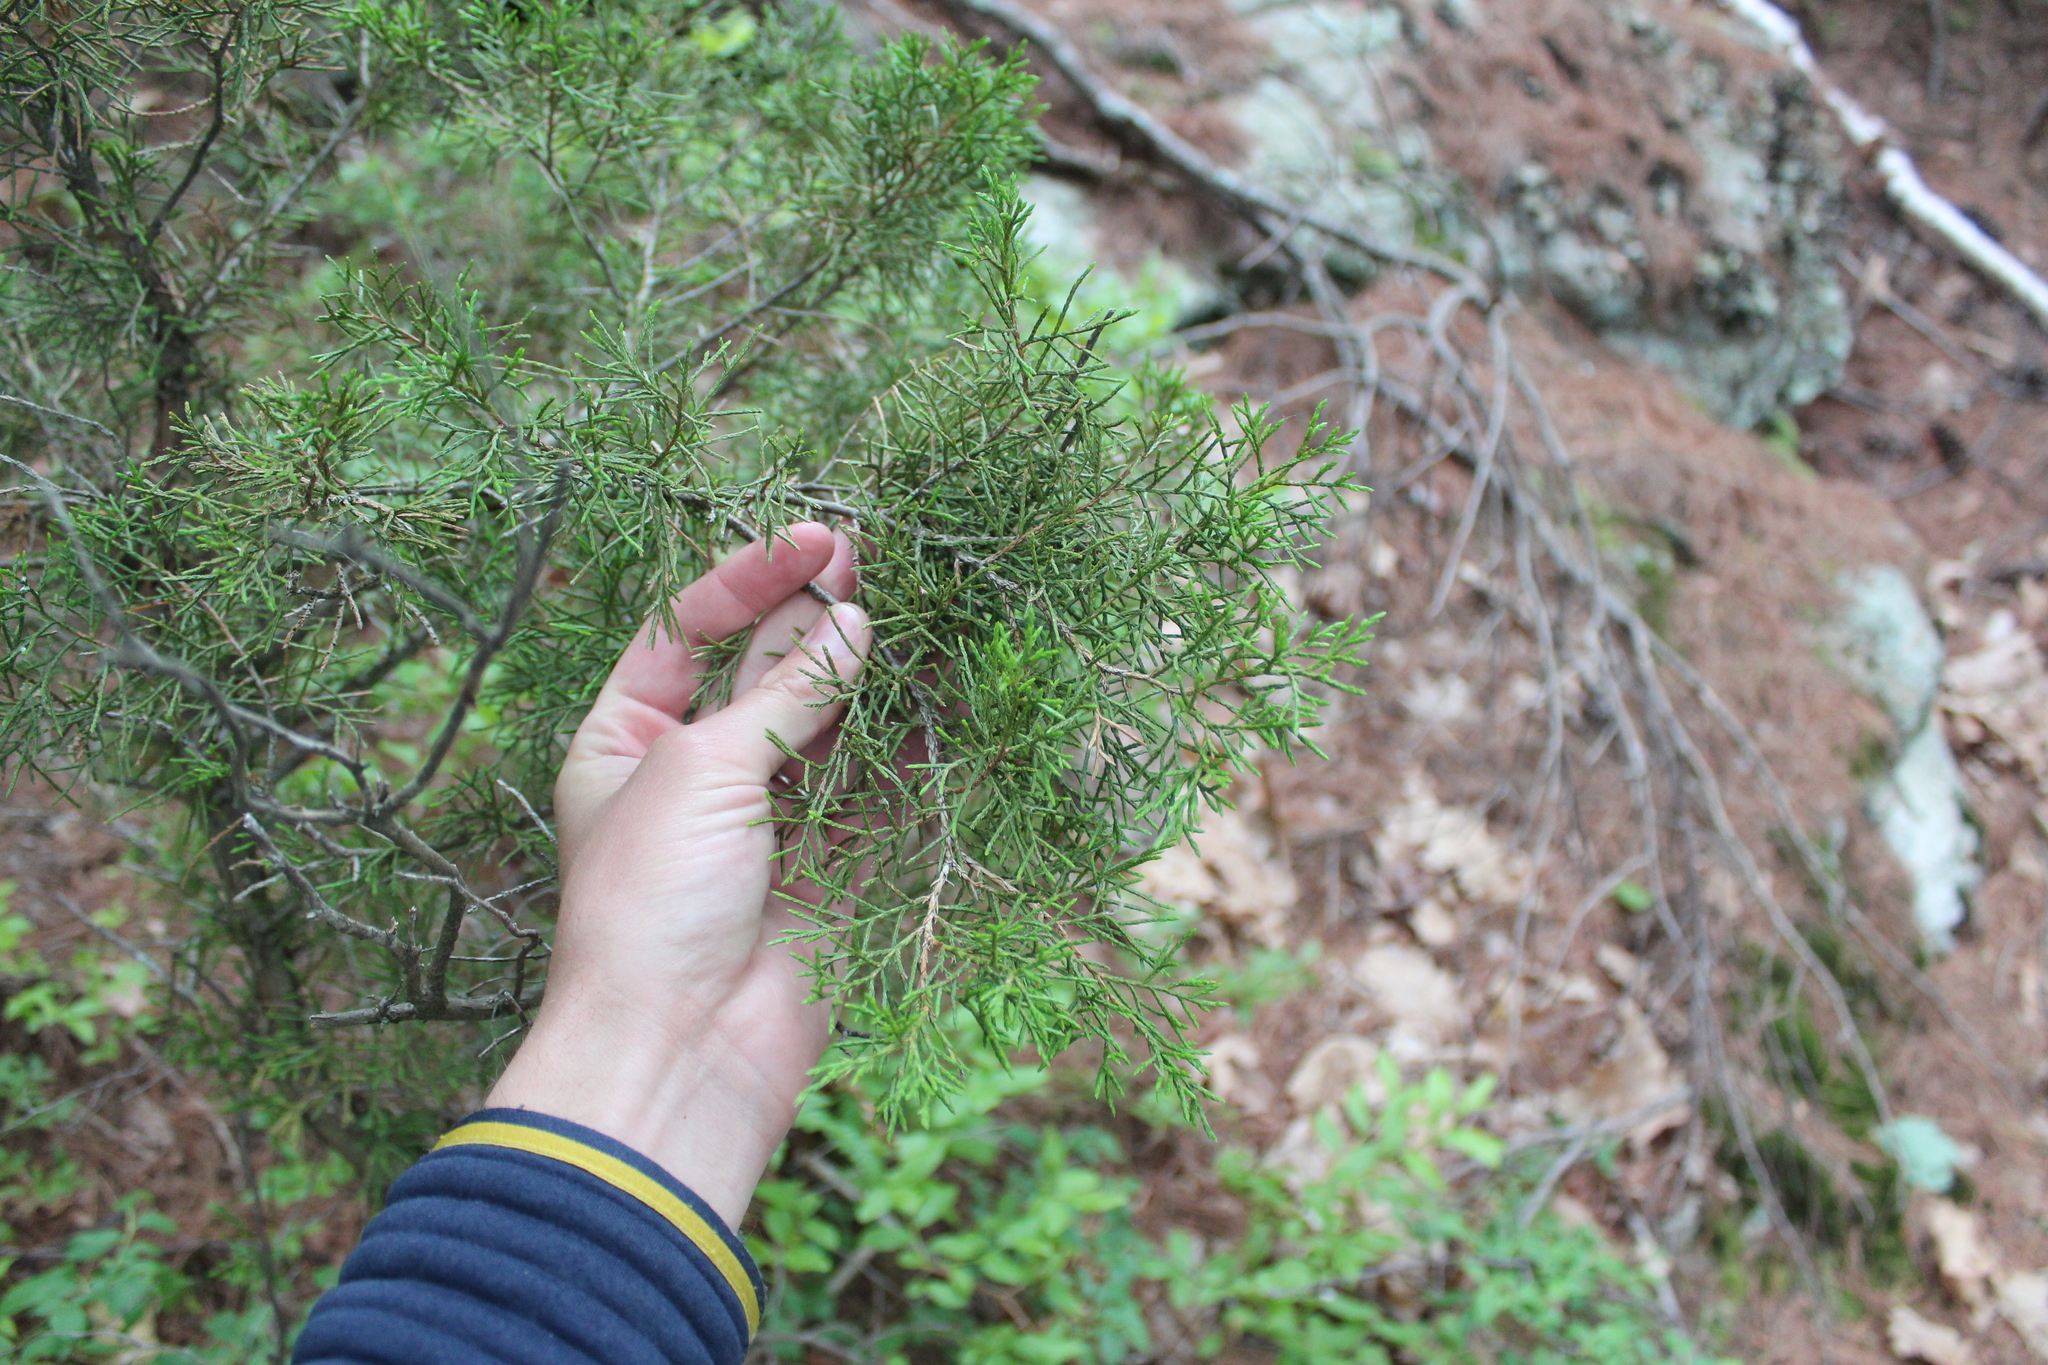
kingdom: Plantae
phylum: Tracheophyta
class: Pinopsida
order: Pinales
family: Cupressaceae
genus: Juniperus
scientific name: Juniperus virginiana
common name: Red juniper
